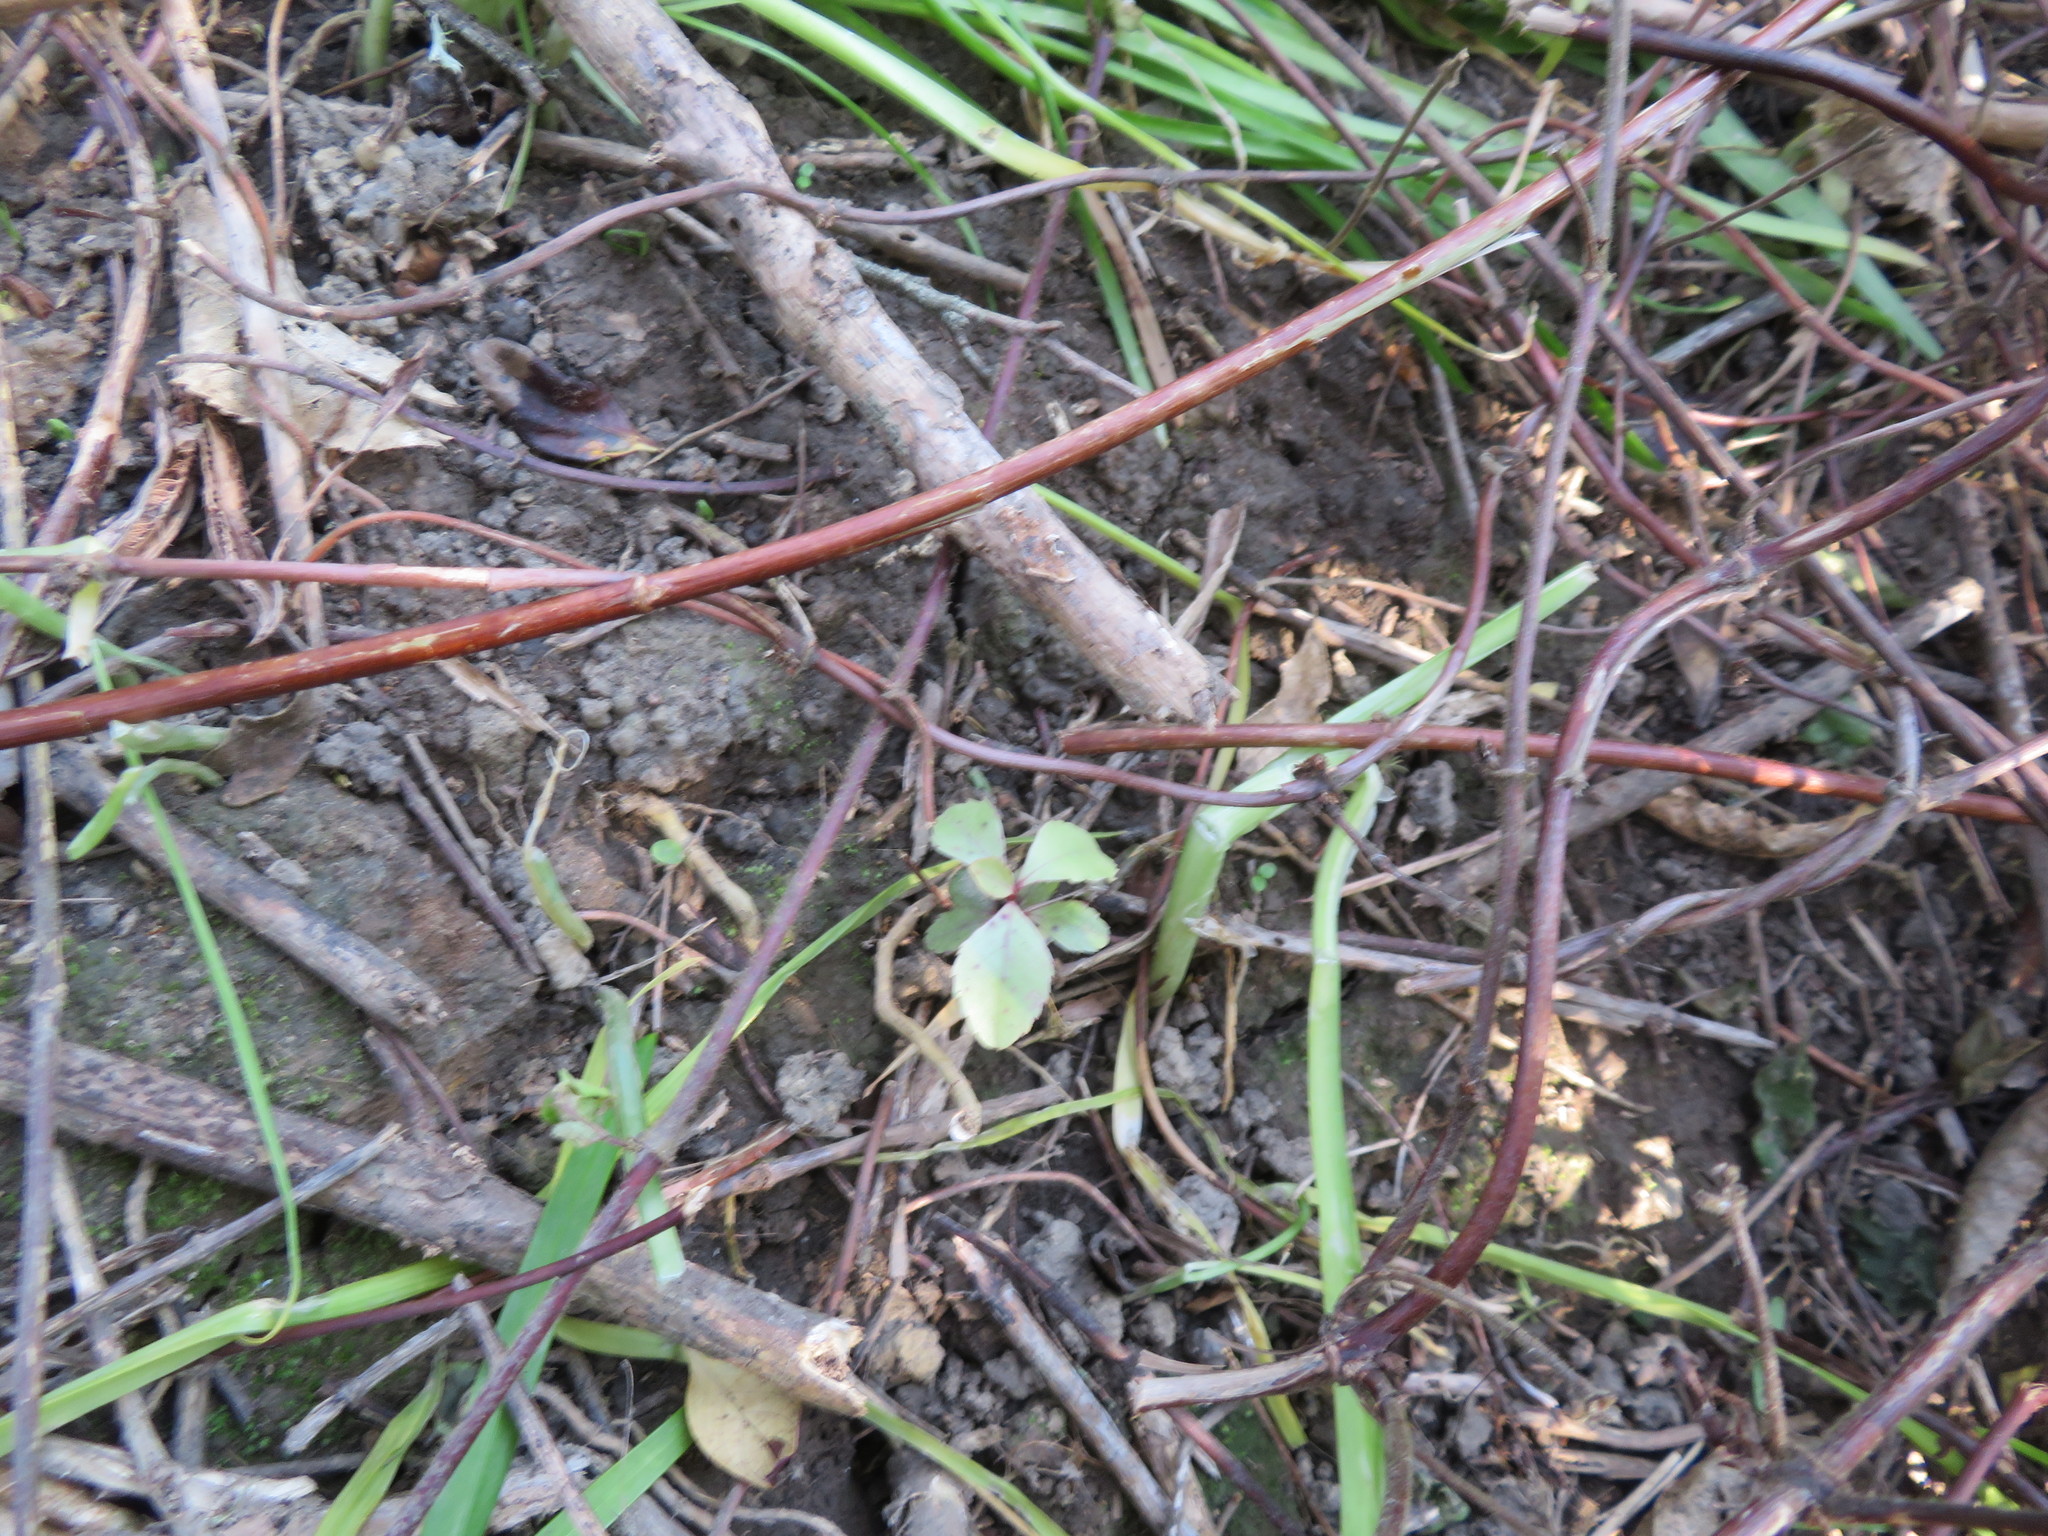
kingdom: Plantae
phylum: Tracheophyta
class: Magnoliopsida
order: Ericales
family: Primulaceae
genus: Myrsine
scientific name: Myrsine australis
